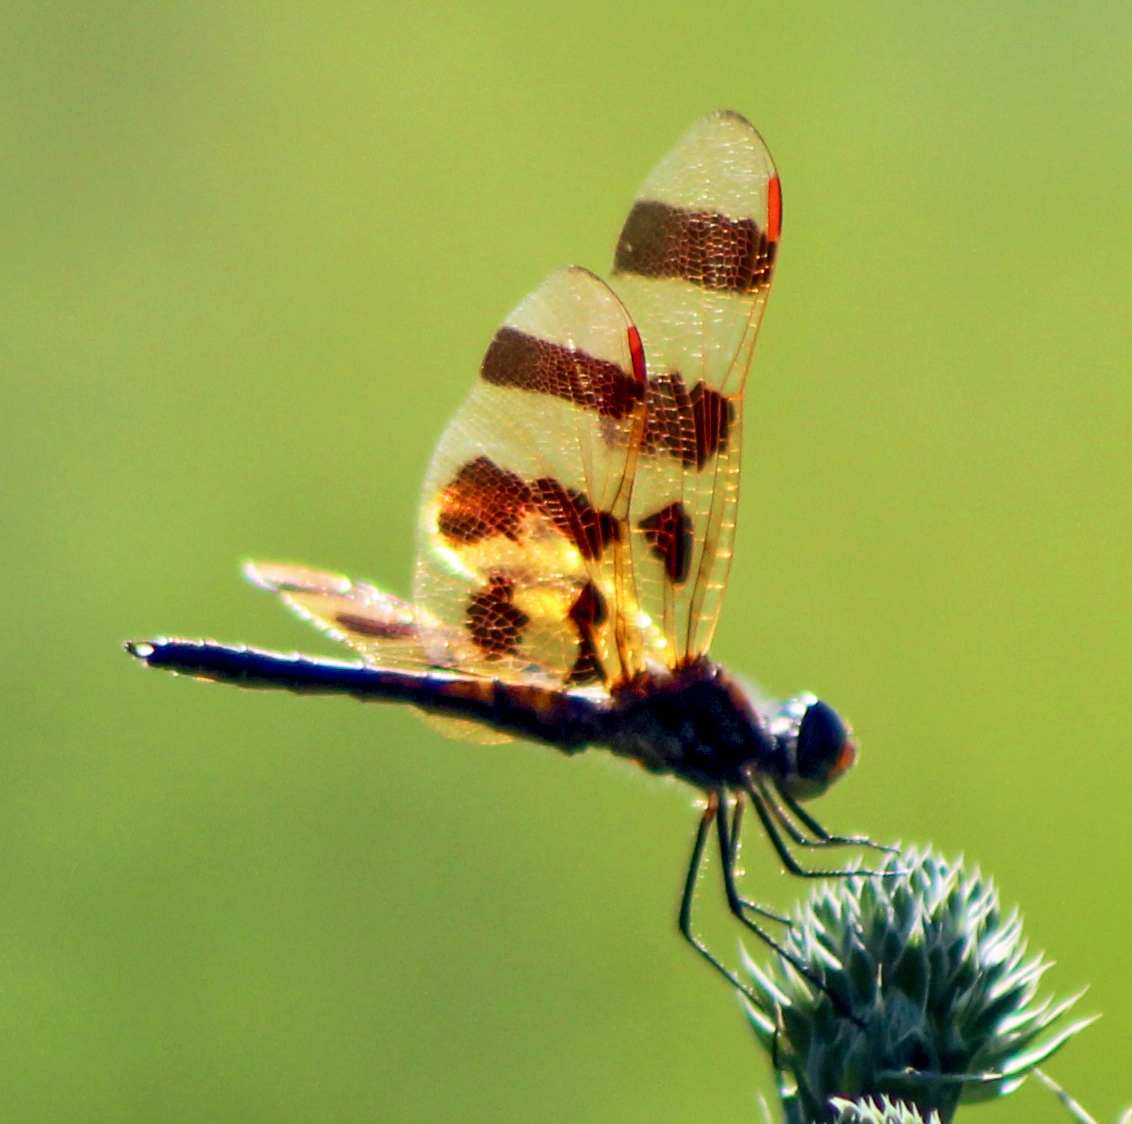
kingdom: Animalia
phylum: Arthropoda
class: Insecta
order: Odonata
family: Libellulidae
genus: Celithemis
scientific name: Celithemis eponina
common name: Halloween pennant
